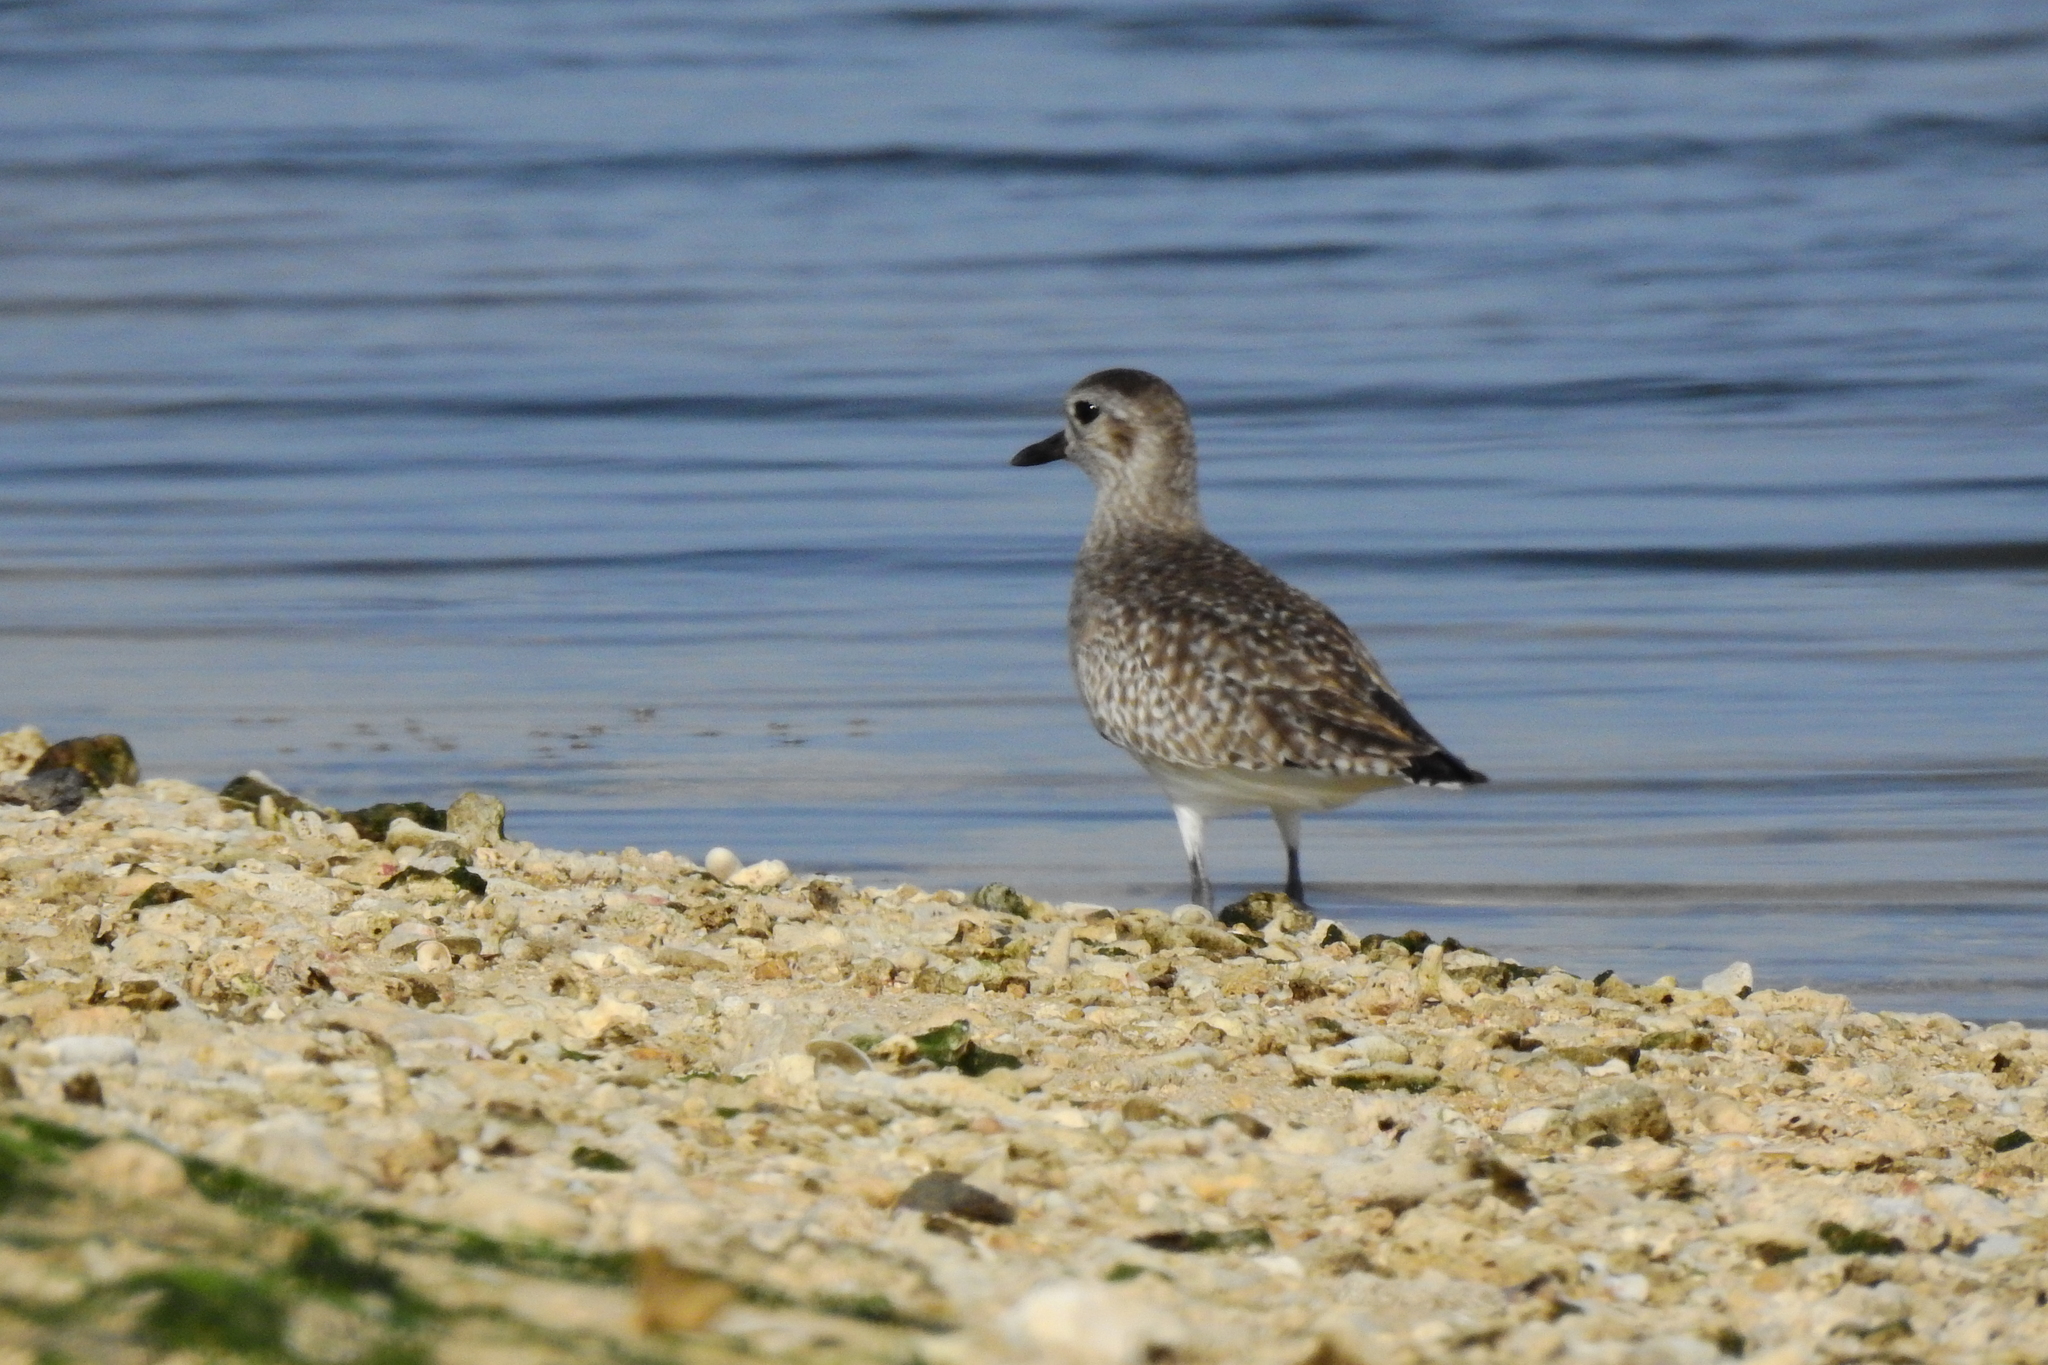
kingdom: Animalia
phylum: Chordata
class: Aves
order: Charadriiformes
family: Charadriidae
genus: Pluvialis
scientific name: Pluvialis squatarola
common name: Grey plover
